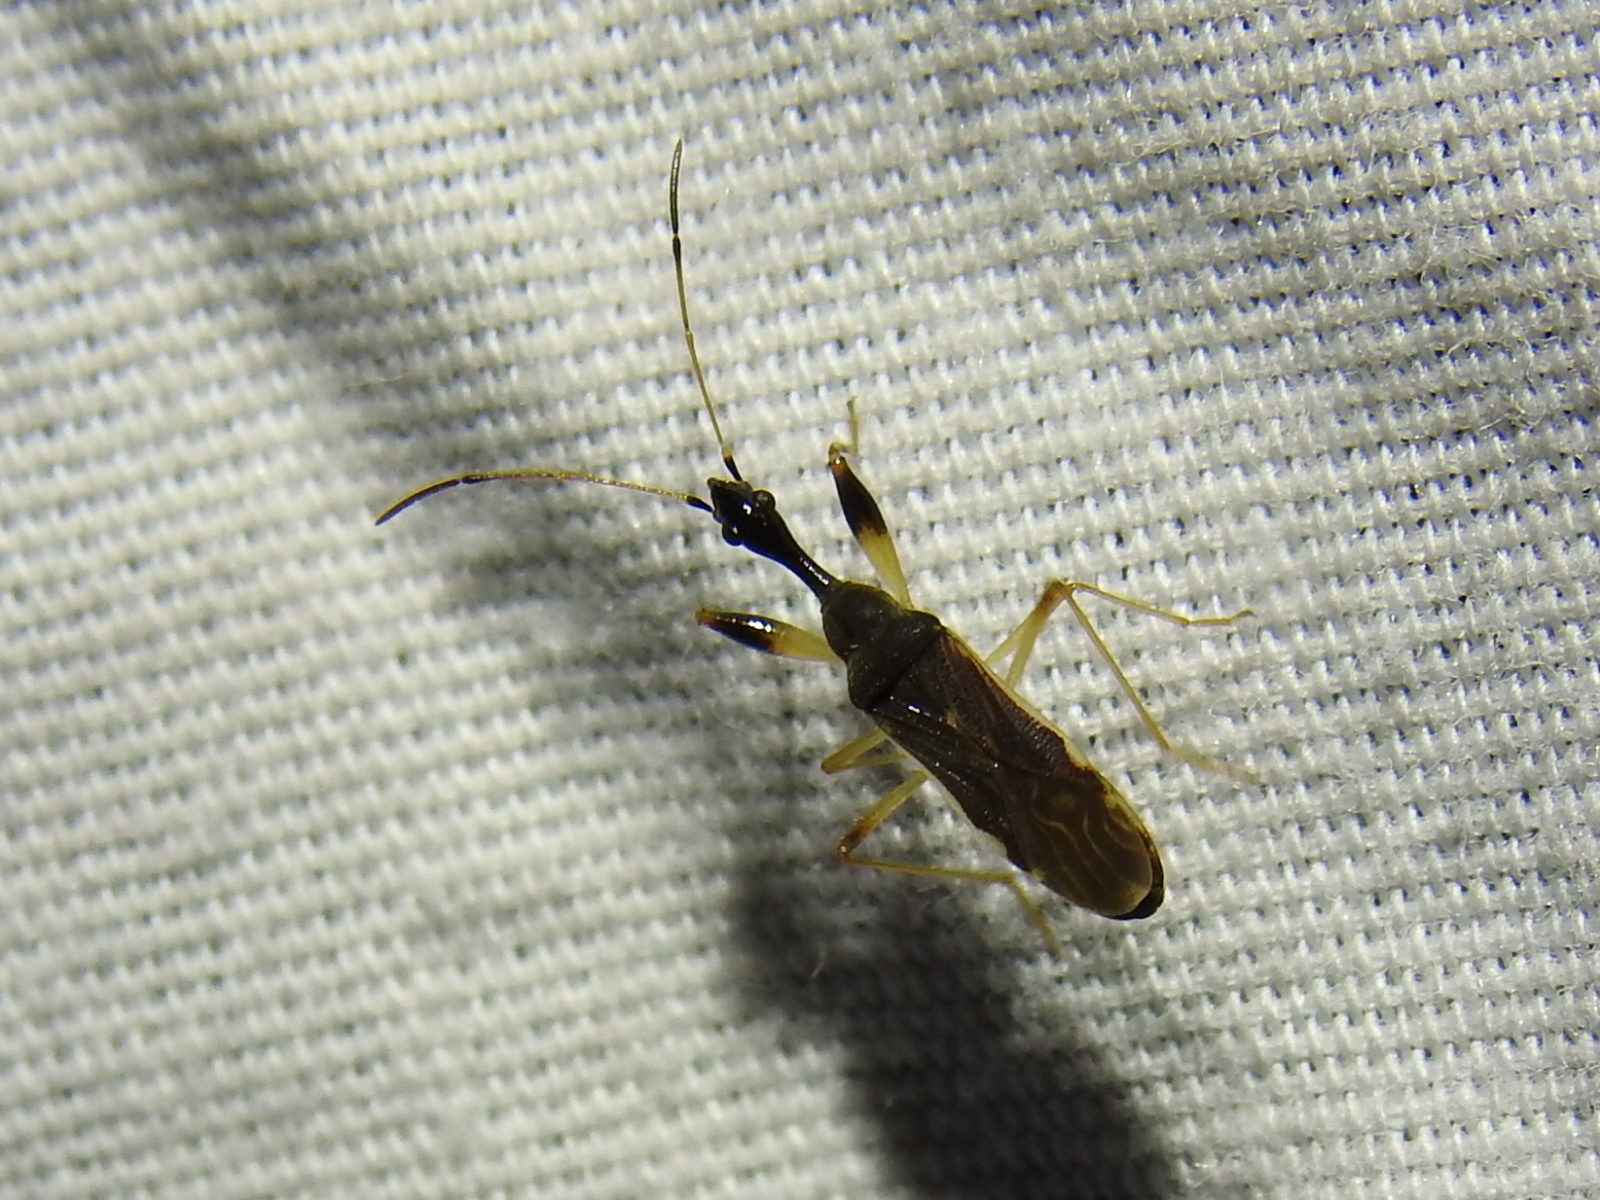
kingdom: Animalia
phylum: Arthropoda
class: Insecta
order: Hemiptera
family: Rhyparochromidae
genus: Myodocha
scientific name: Myodocha serripes
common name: Long-necked seed bug
